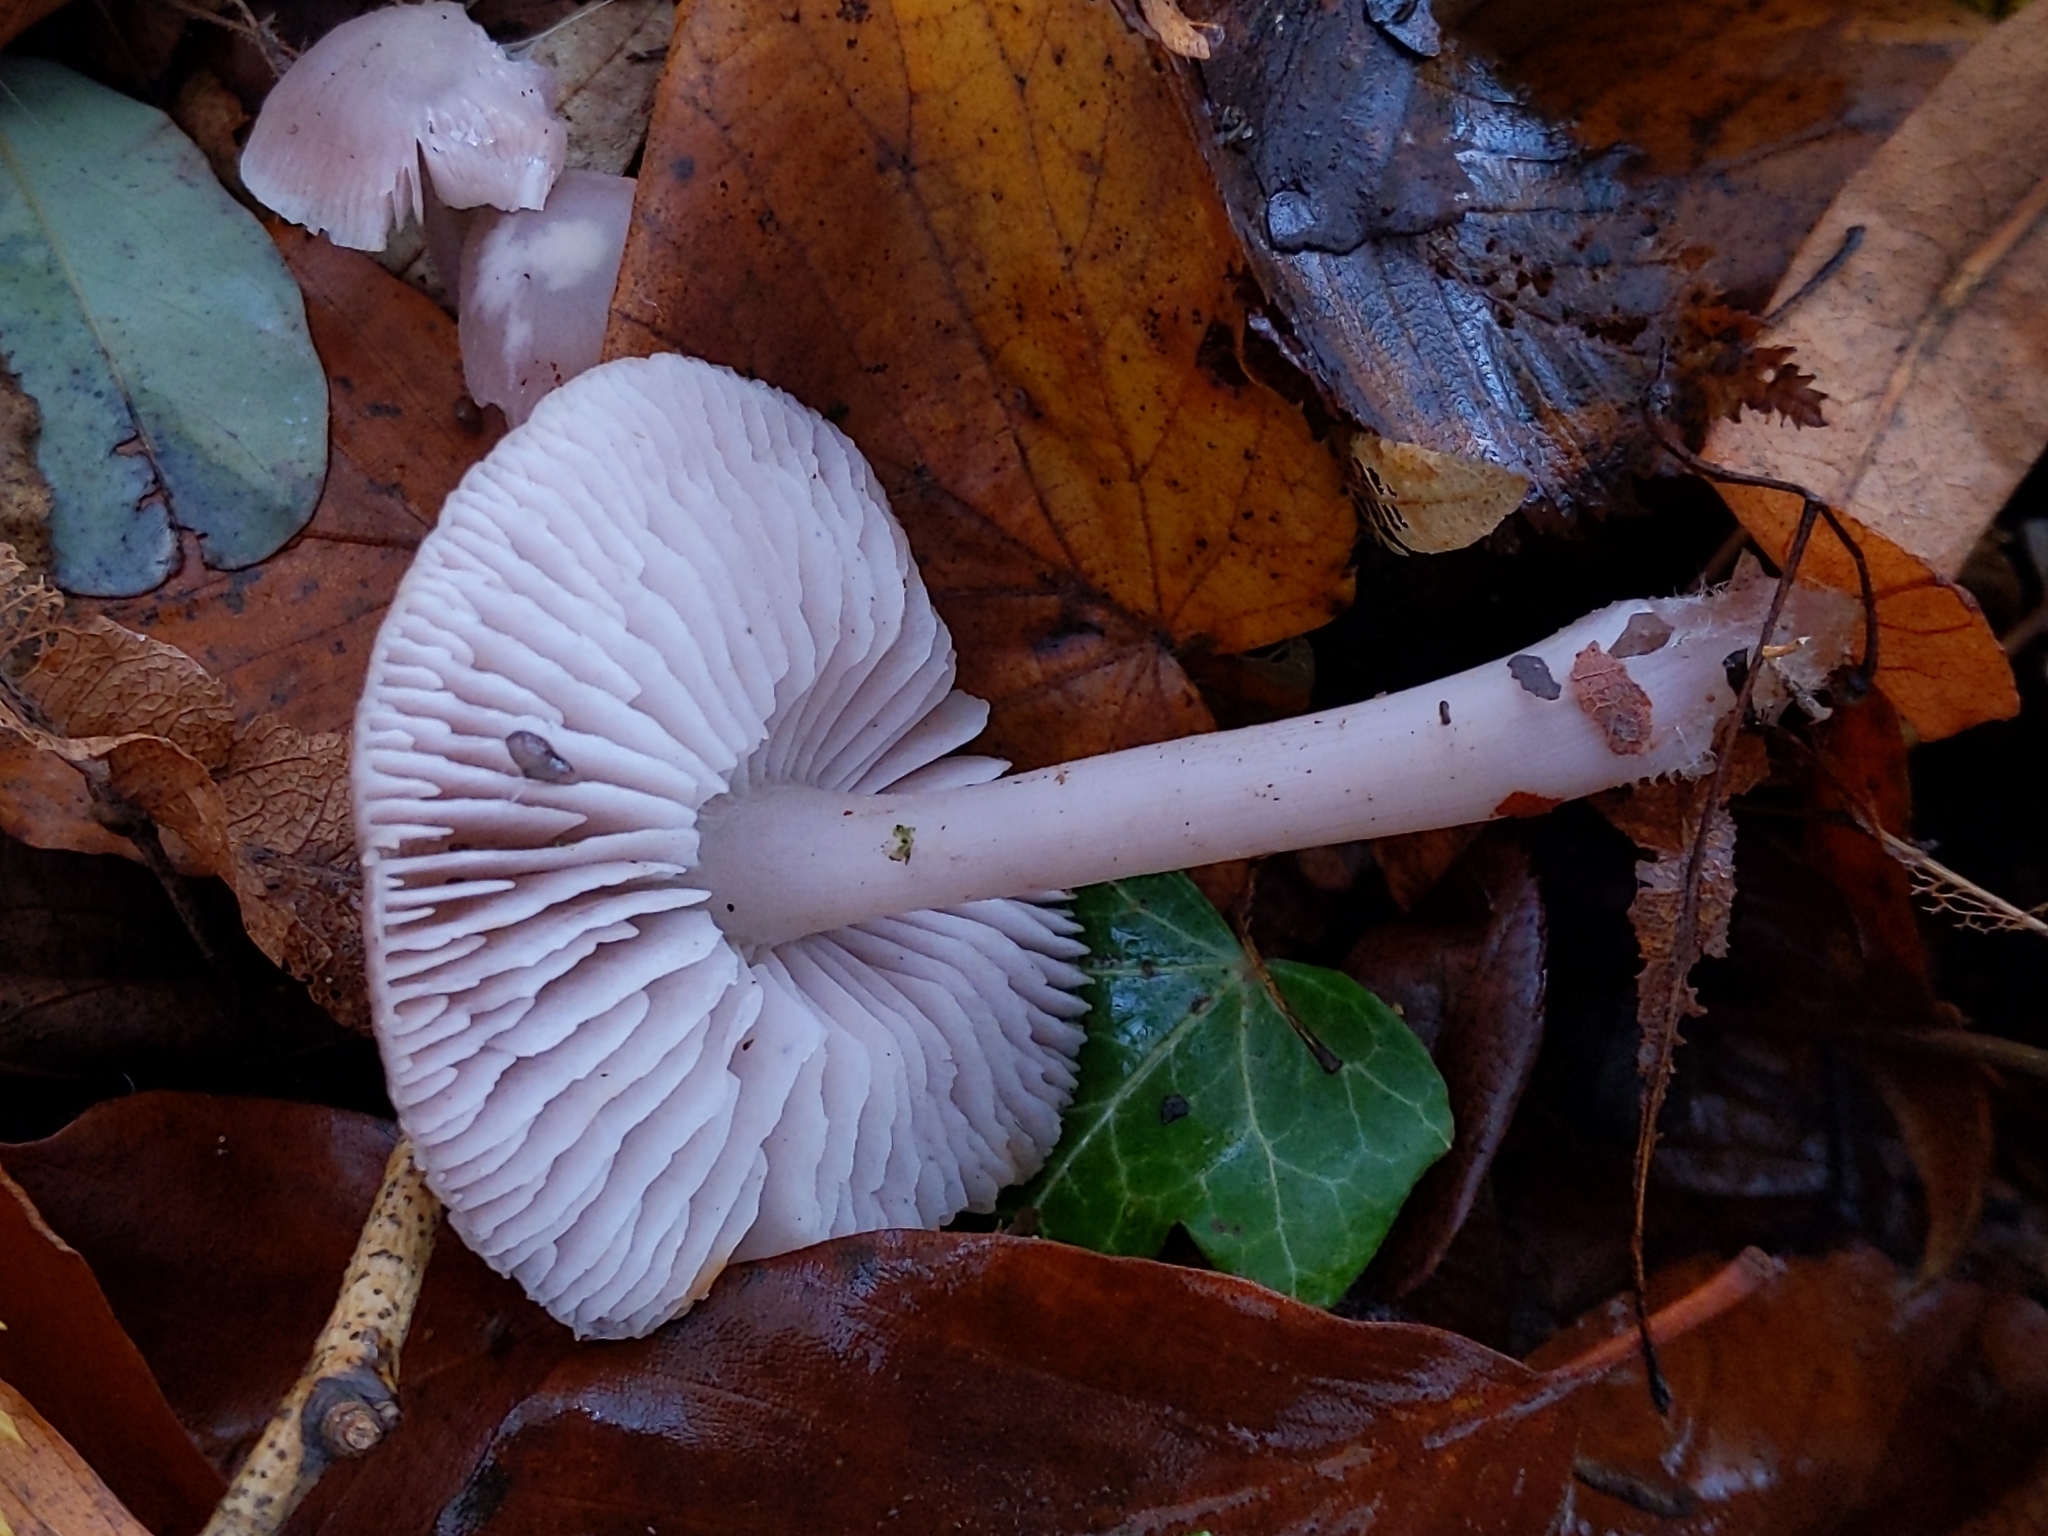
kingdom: Fungi
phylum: Basidiomycota
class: Agaricomycetes
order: Agaricales
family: Mycenaceae
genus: Mycena
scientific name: Mycena rosea
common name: Rosy bonnet
